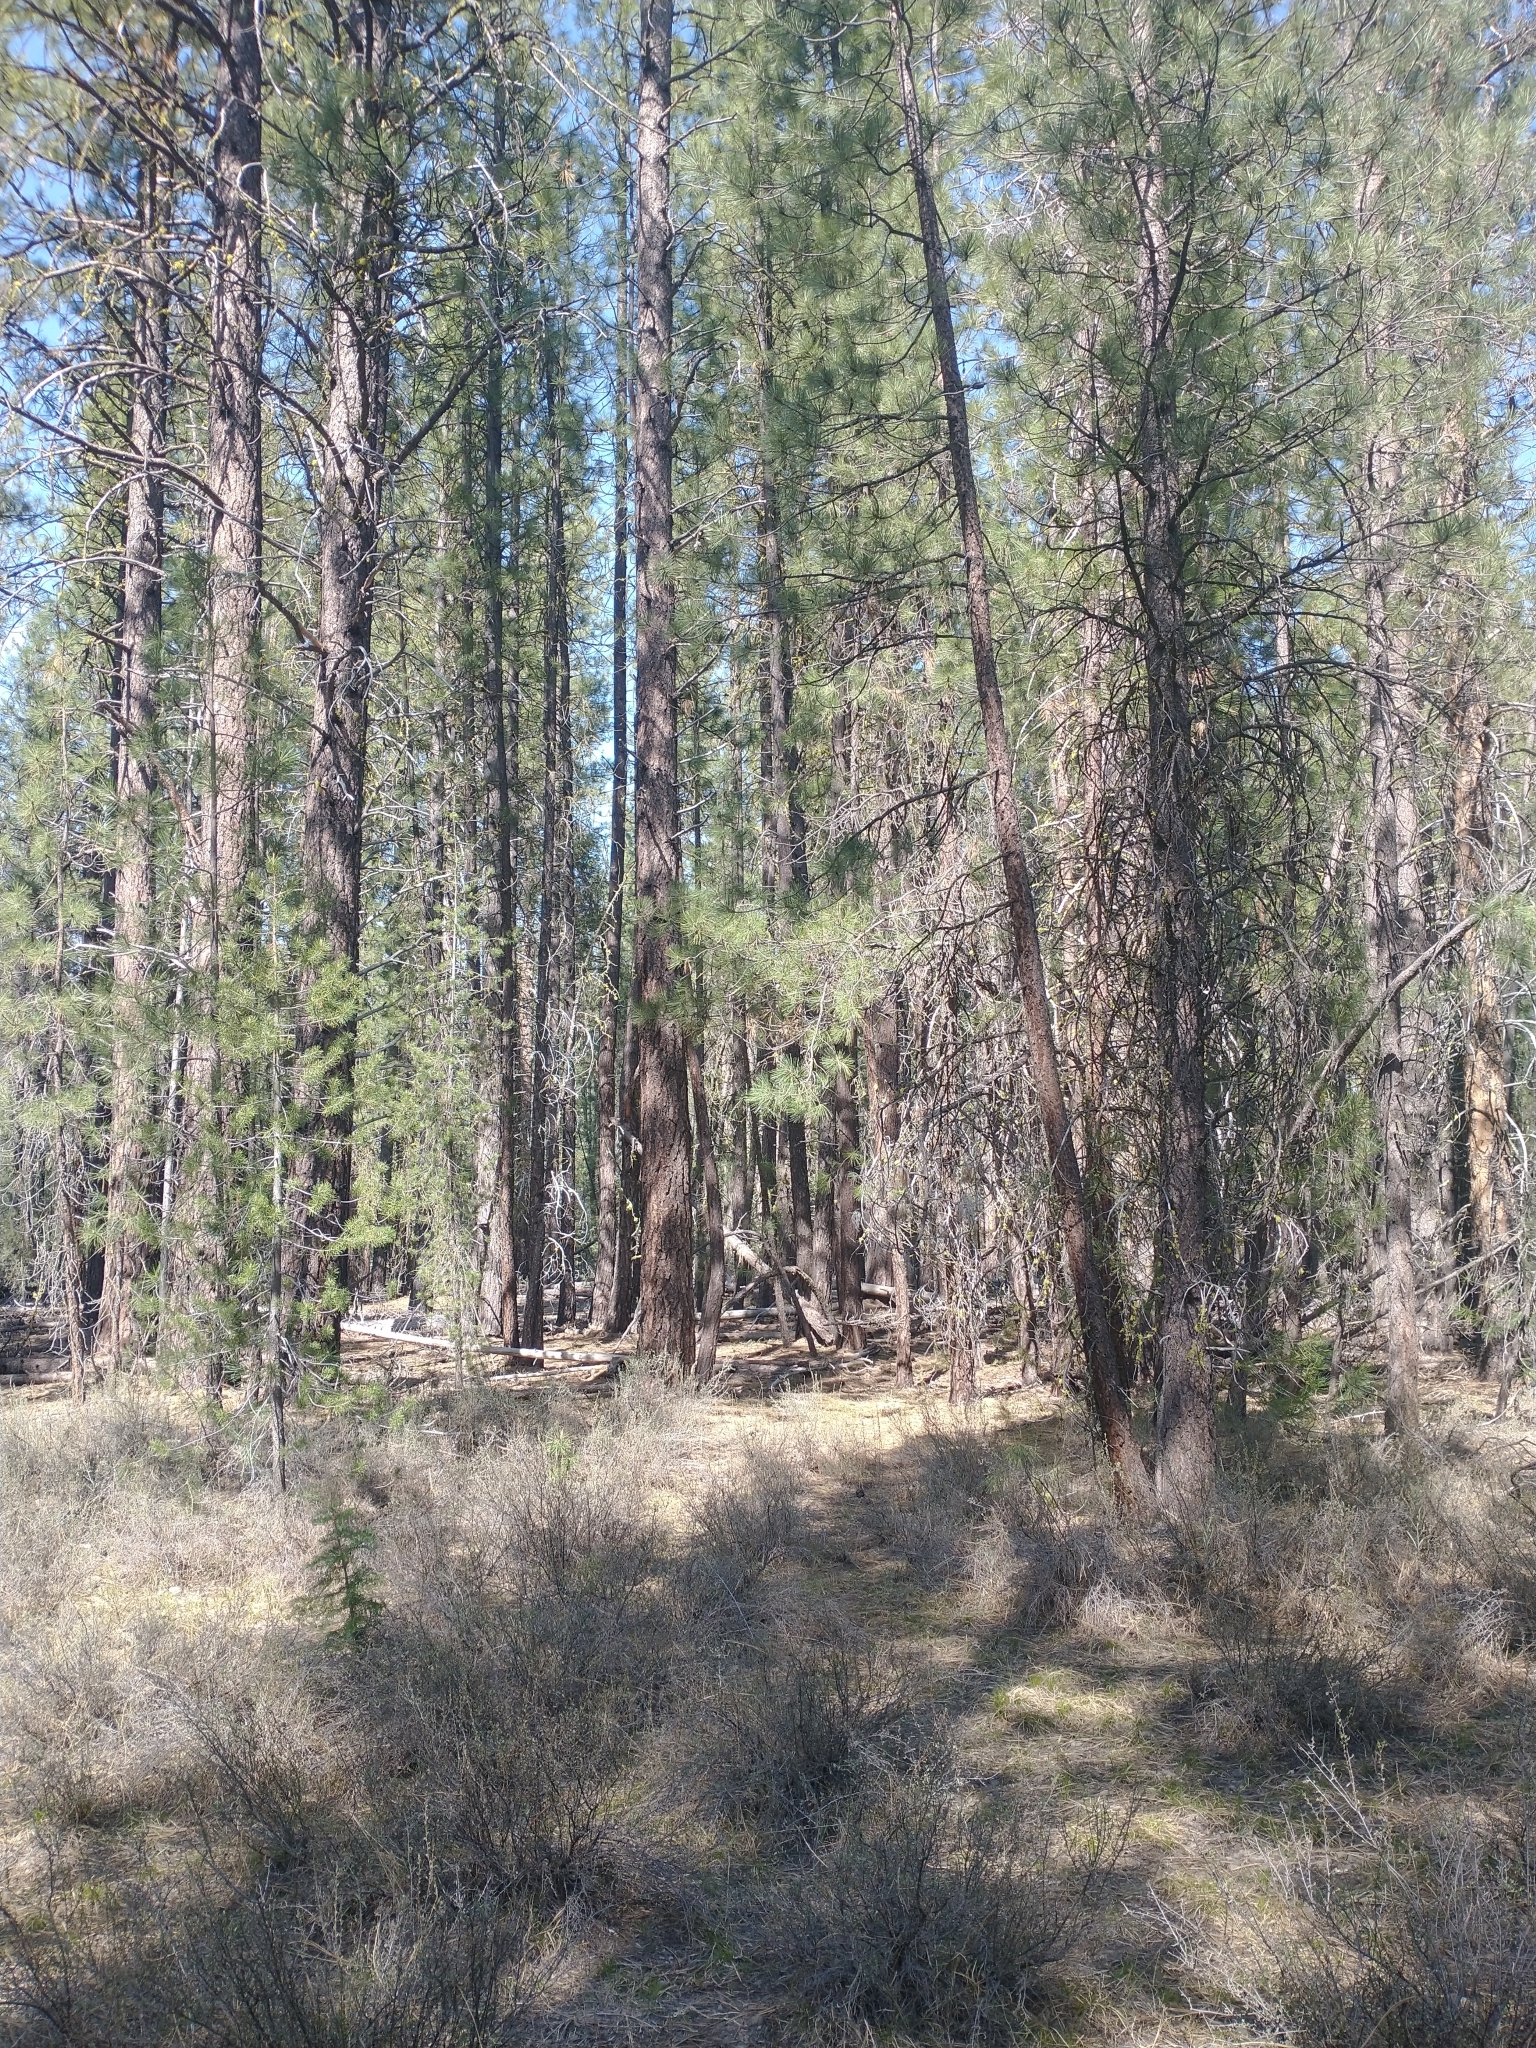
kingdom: Plantae
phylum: Tracheophyta
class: Pinopsida
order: Pinales
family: Pinaceae
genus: Pinus
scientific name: Pinus ponderosa
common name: Western yellow-pine
